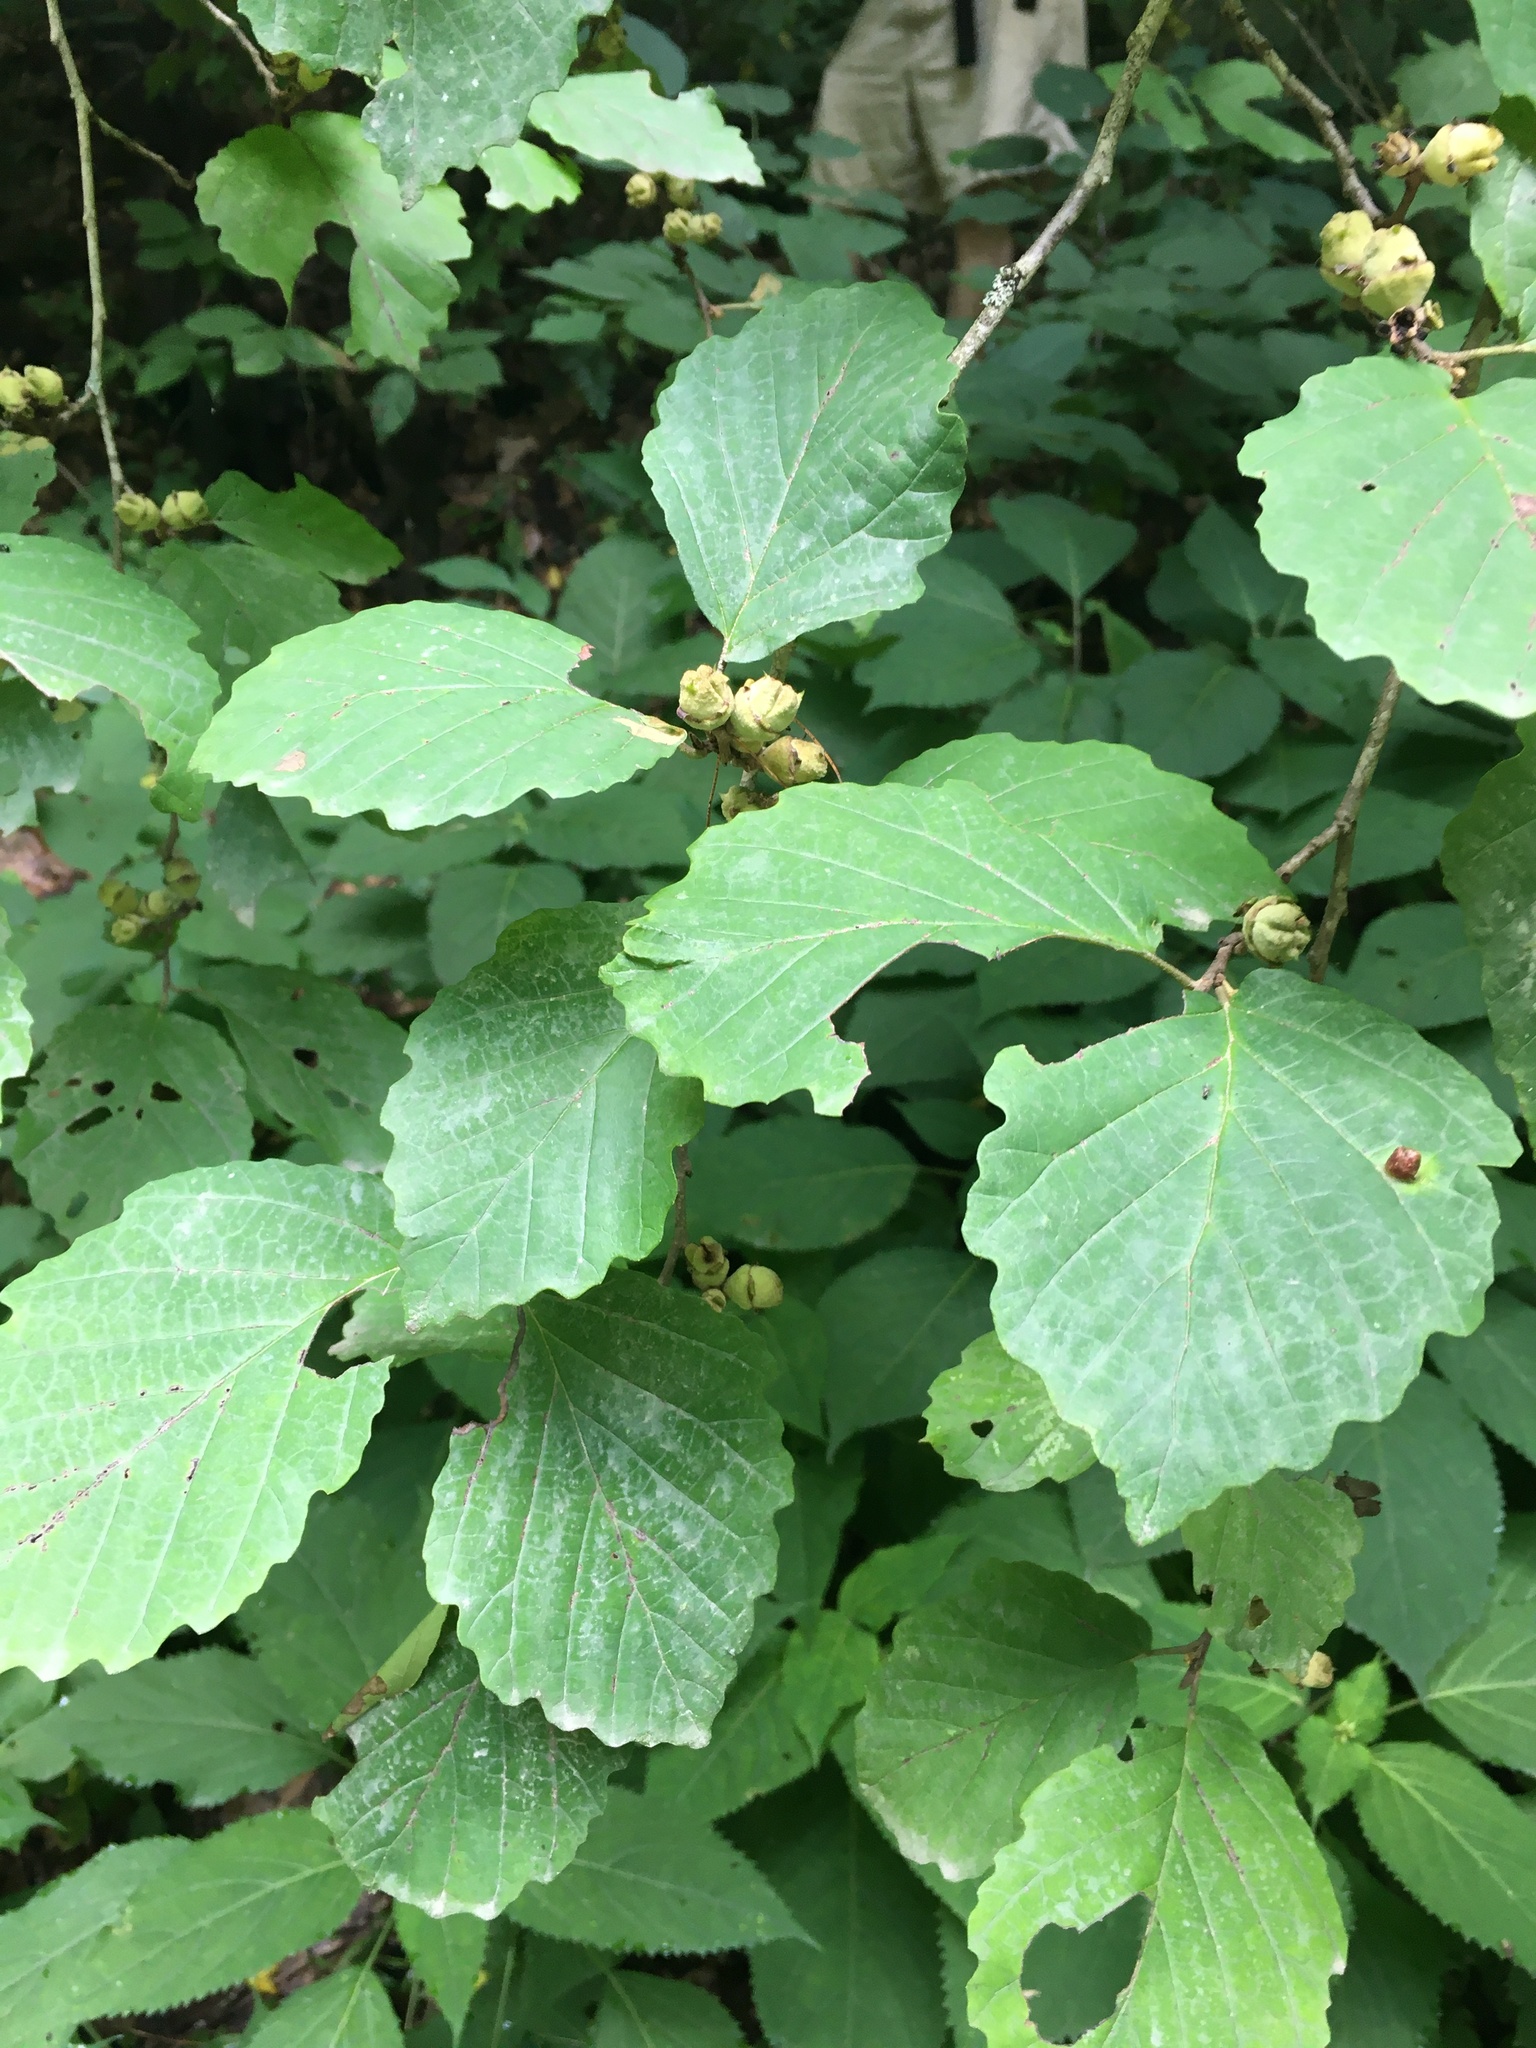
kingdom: Plantae
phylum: Tracheophyta
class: Magnoliopsida
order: Saxifragales
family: Hamamelidaceae
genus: Hamamelis
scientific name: Hamamelis virginiana
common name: Witch-hazel
